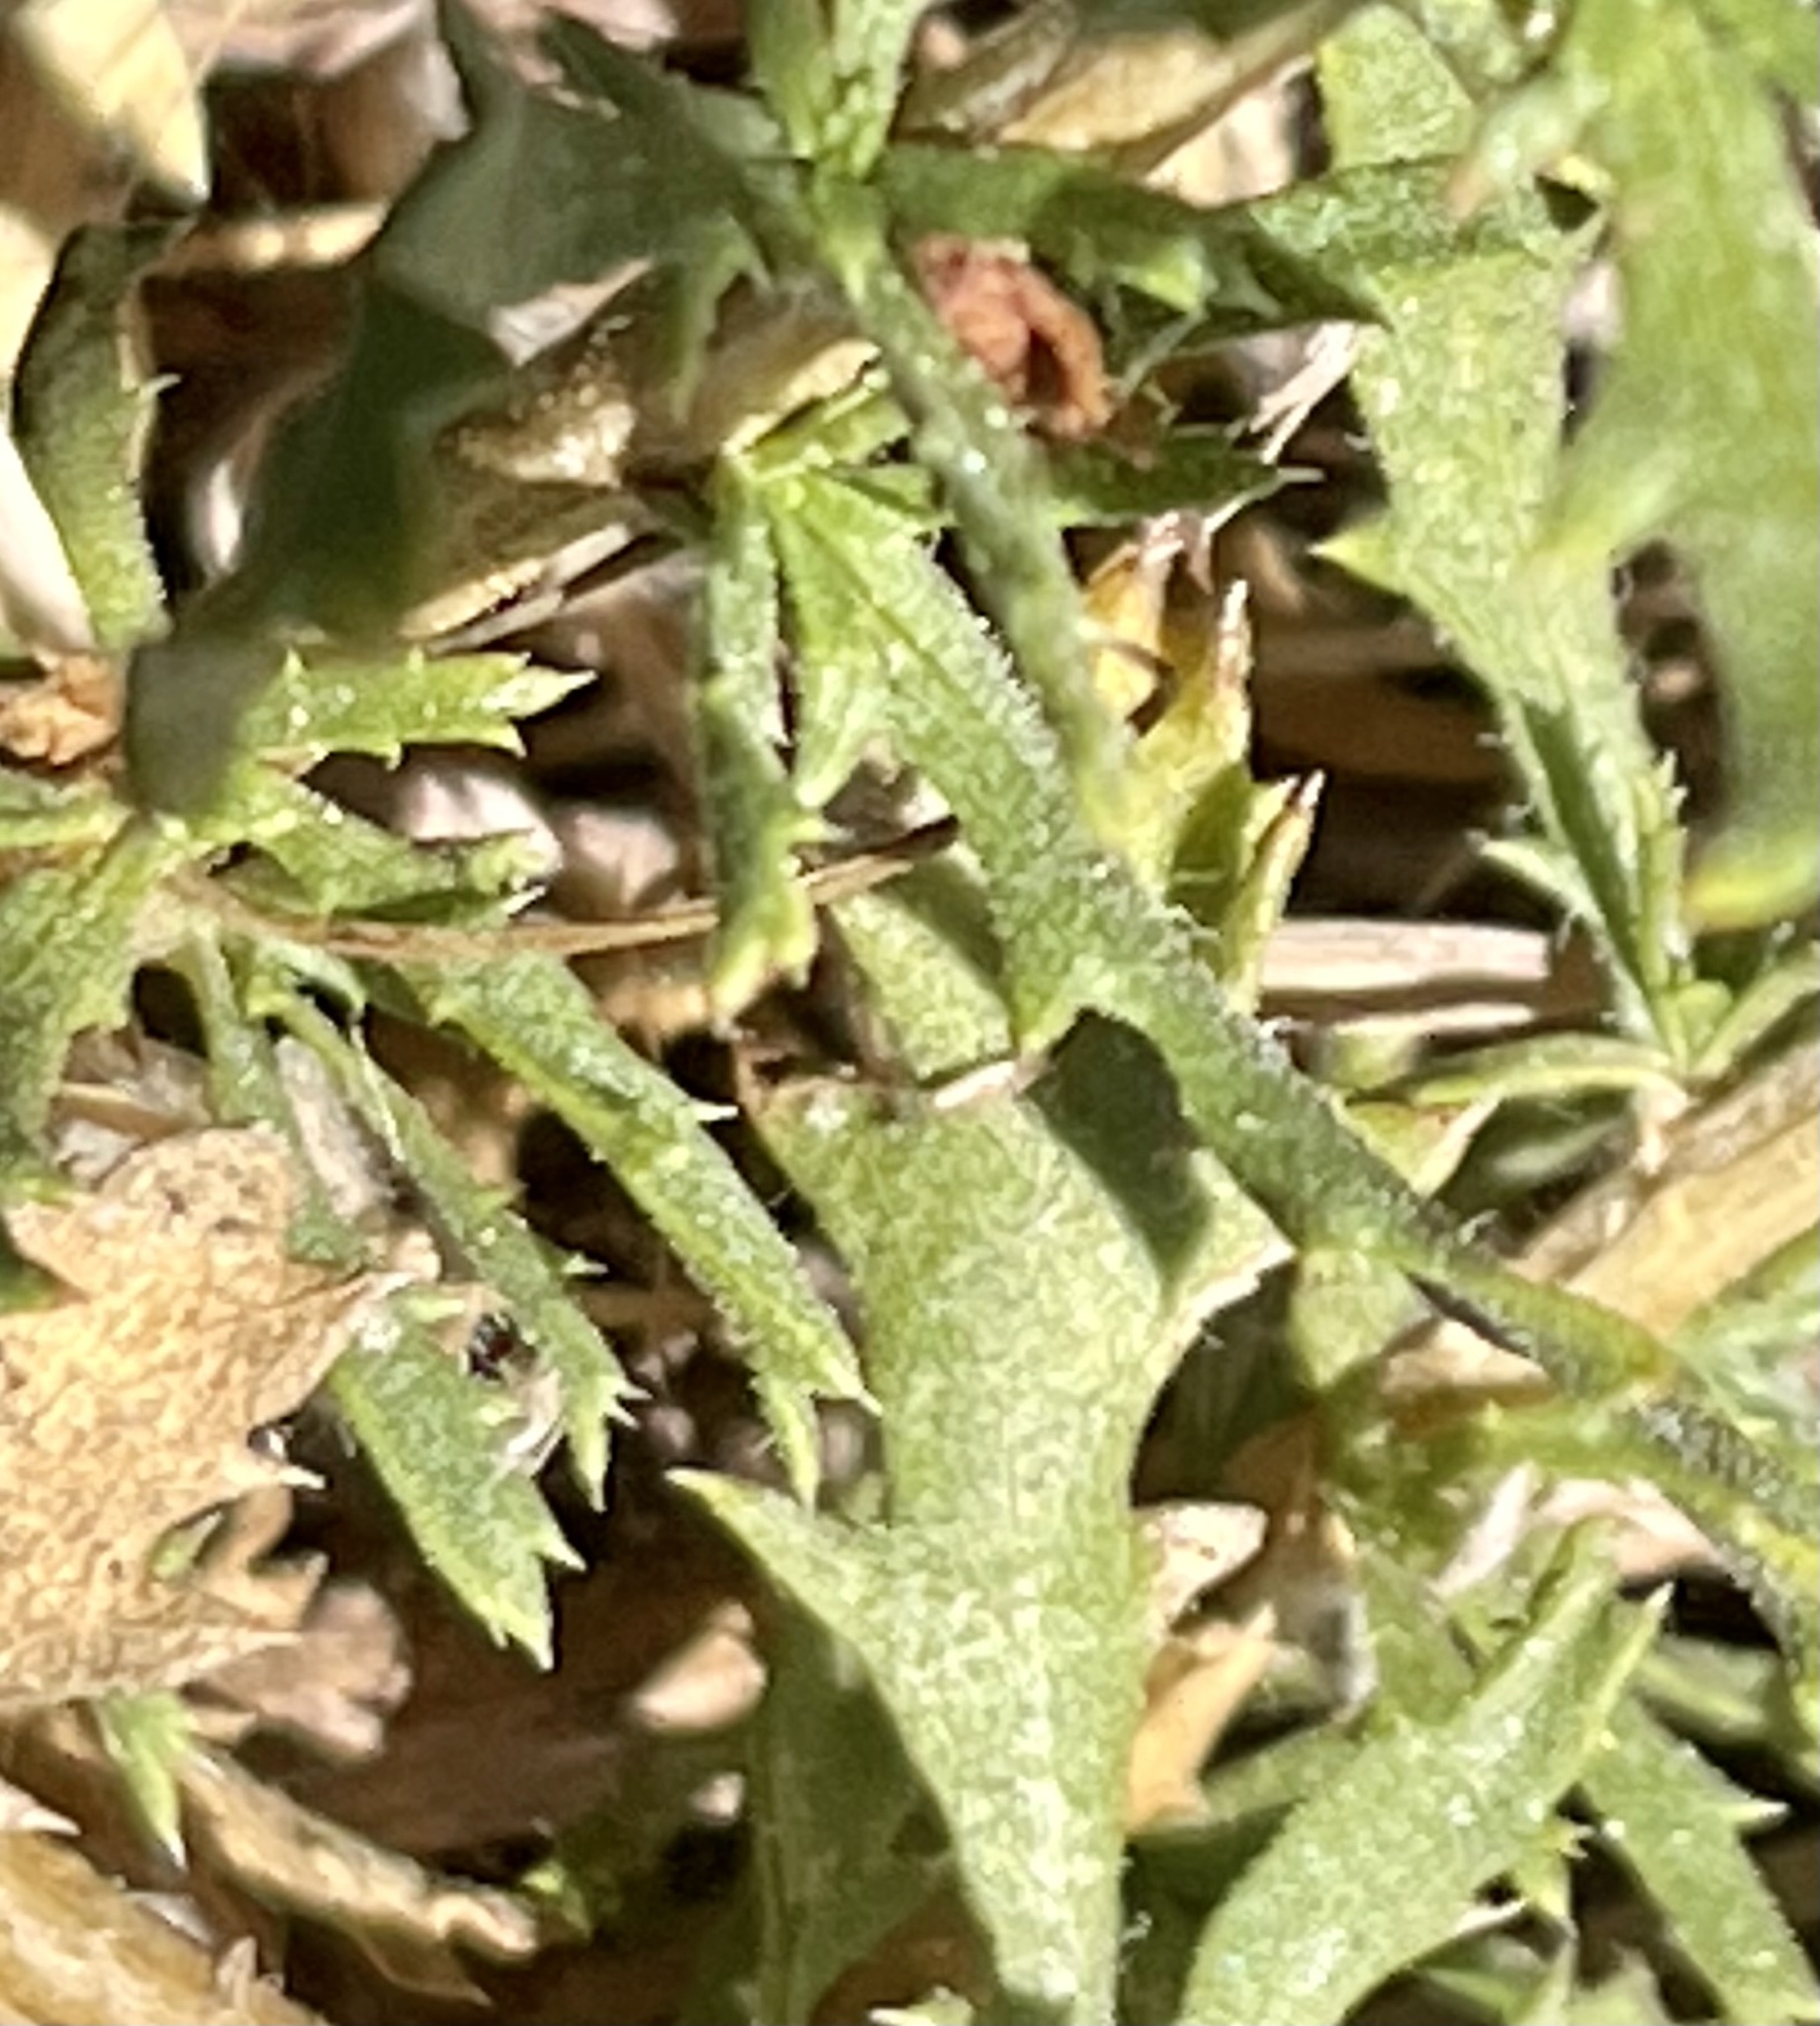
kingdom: Plantae
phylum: Tracheophyta
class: Magnoliopsida
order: Asterales
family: Asteraceae
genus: Isocoma
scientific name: Isocoma menziesii
